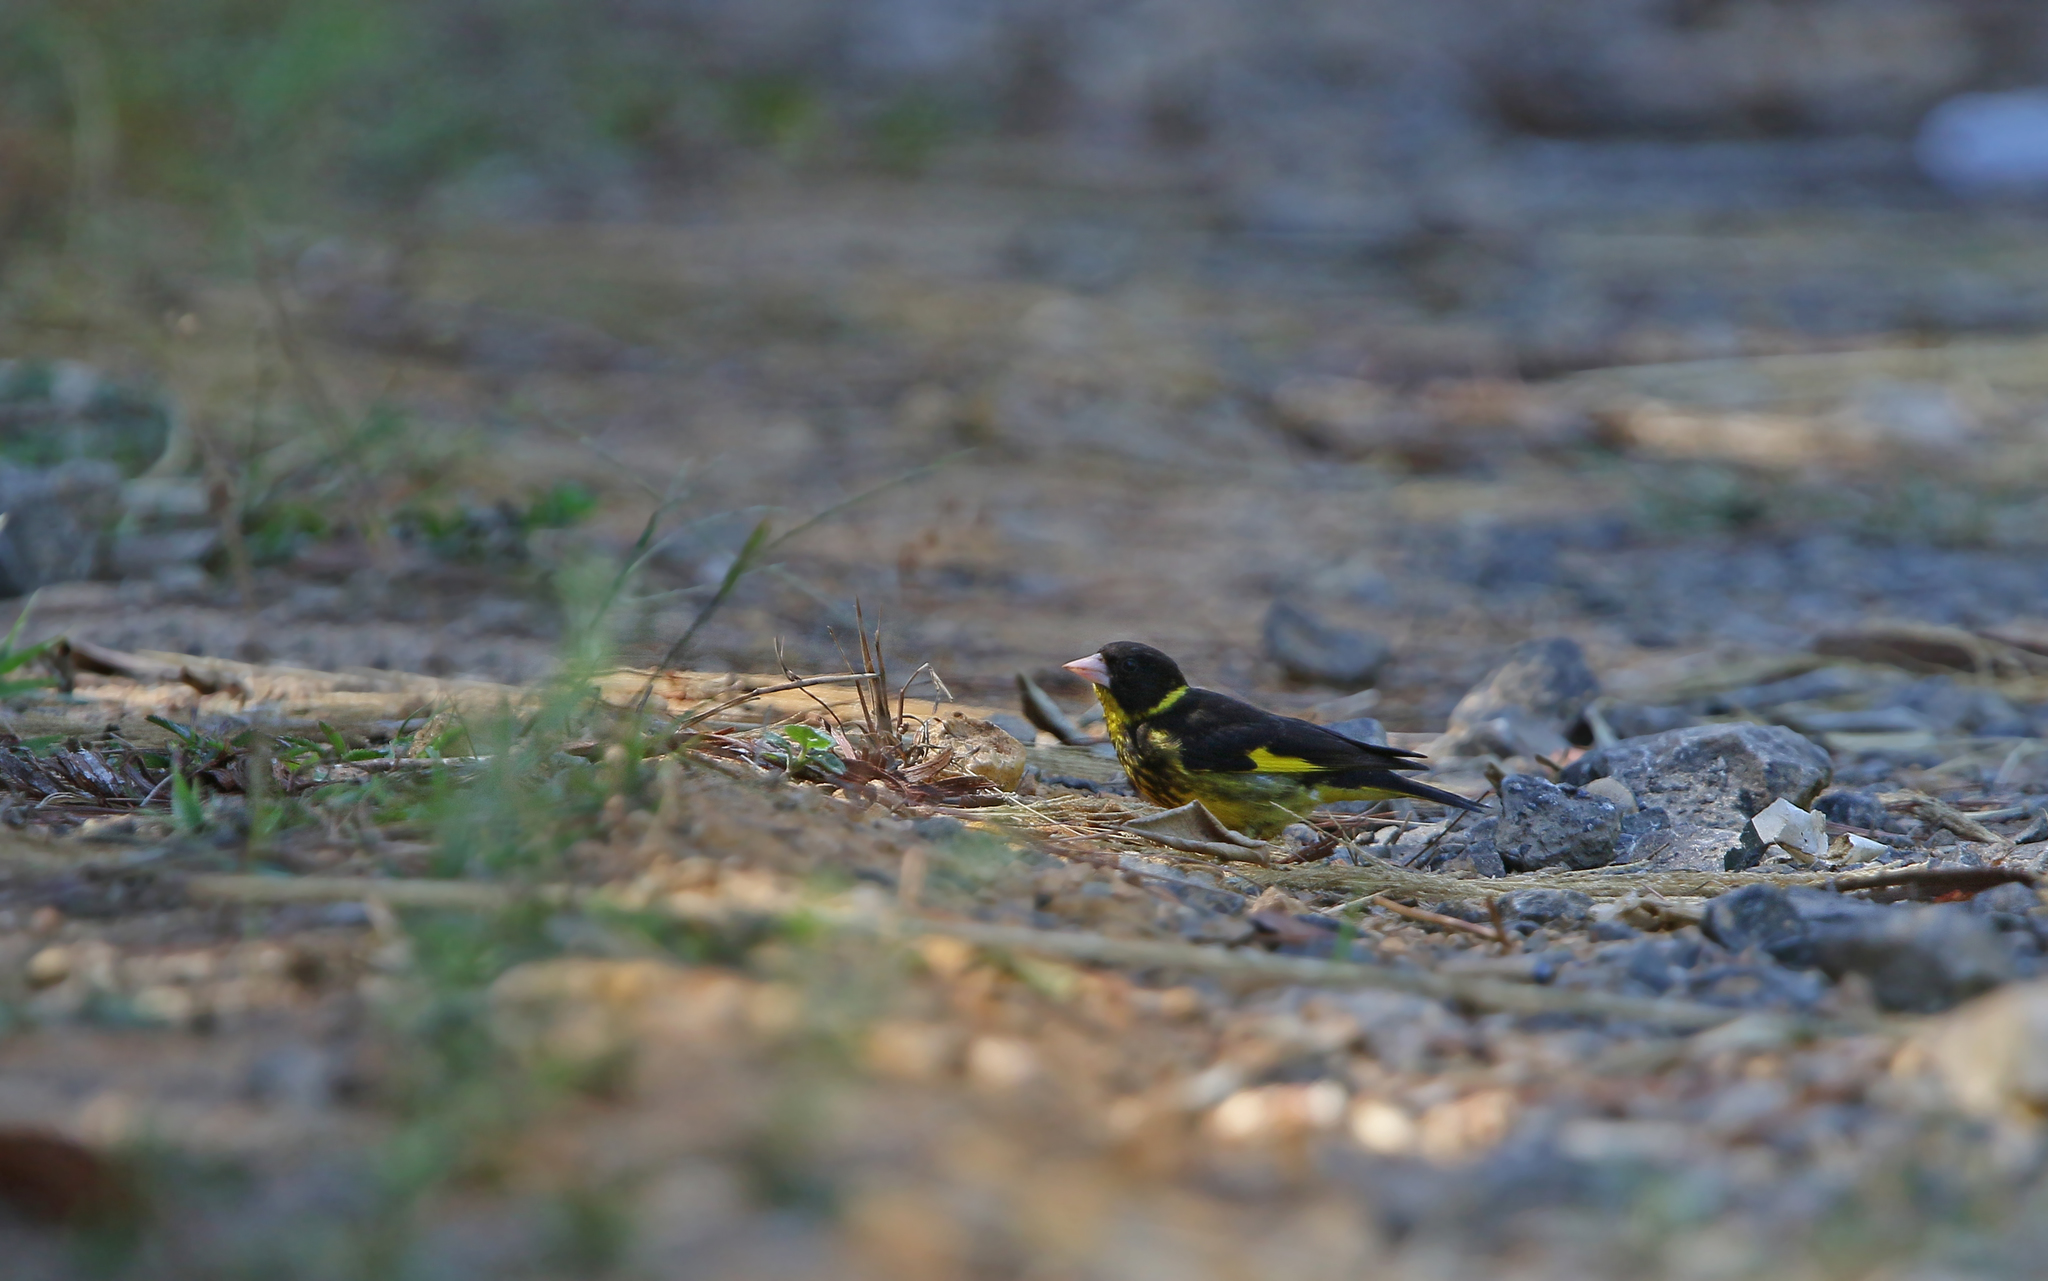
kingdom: Animalia
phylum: Chordata
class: Aves
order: Passeriformes
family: Fringillidae
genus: Chloris
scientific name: Chloris monguilloti
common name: Vietnamese greenfinch
